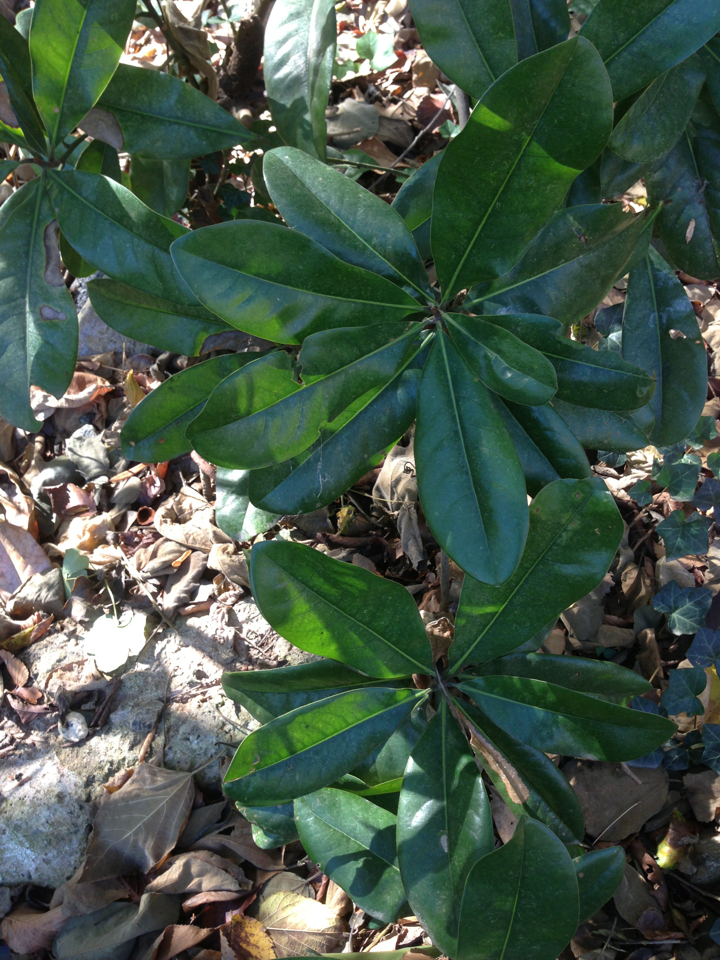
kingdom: Plantae
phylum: Tracheophyta
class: Magnoliopsida
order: Magnoliales
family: Magnoliaceae
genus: Magnolia
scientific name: Magnolia grandiflora
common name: Southern magnolia
